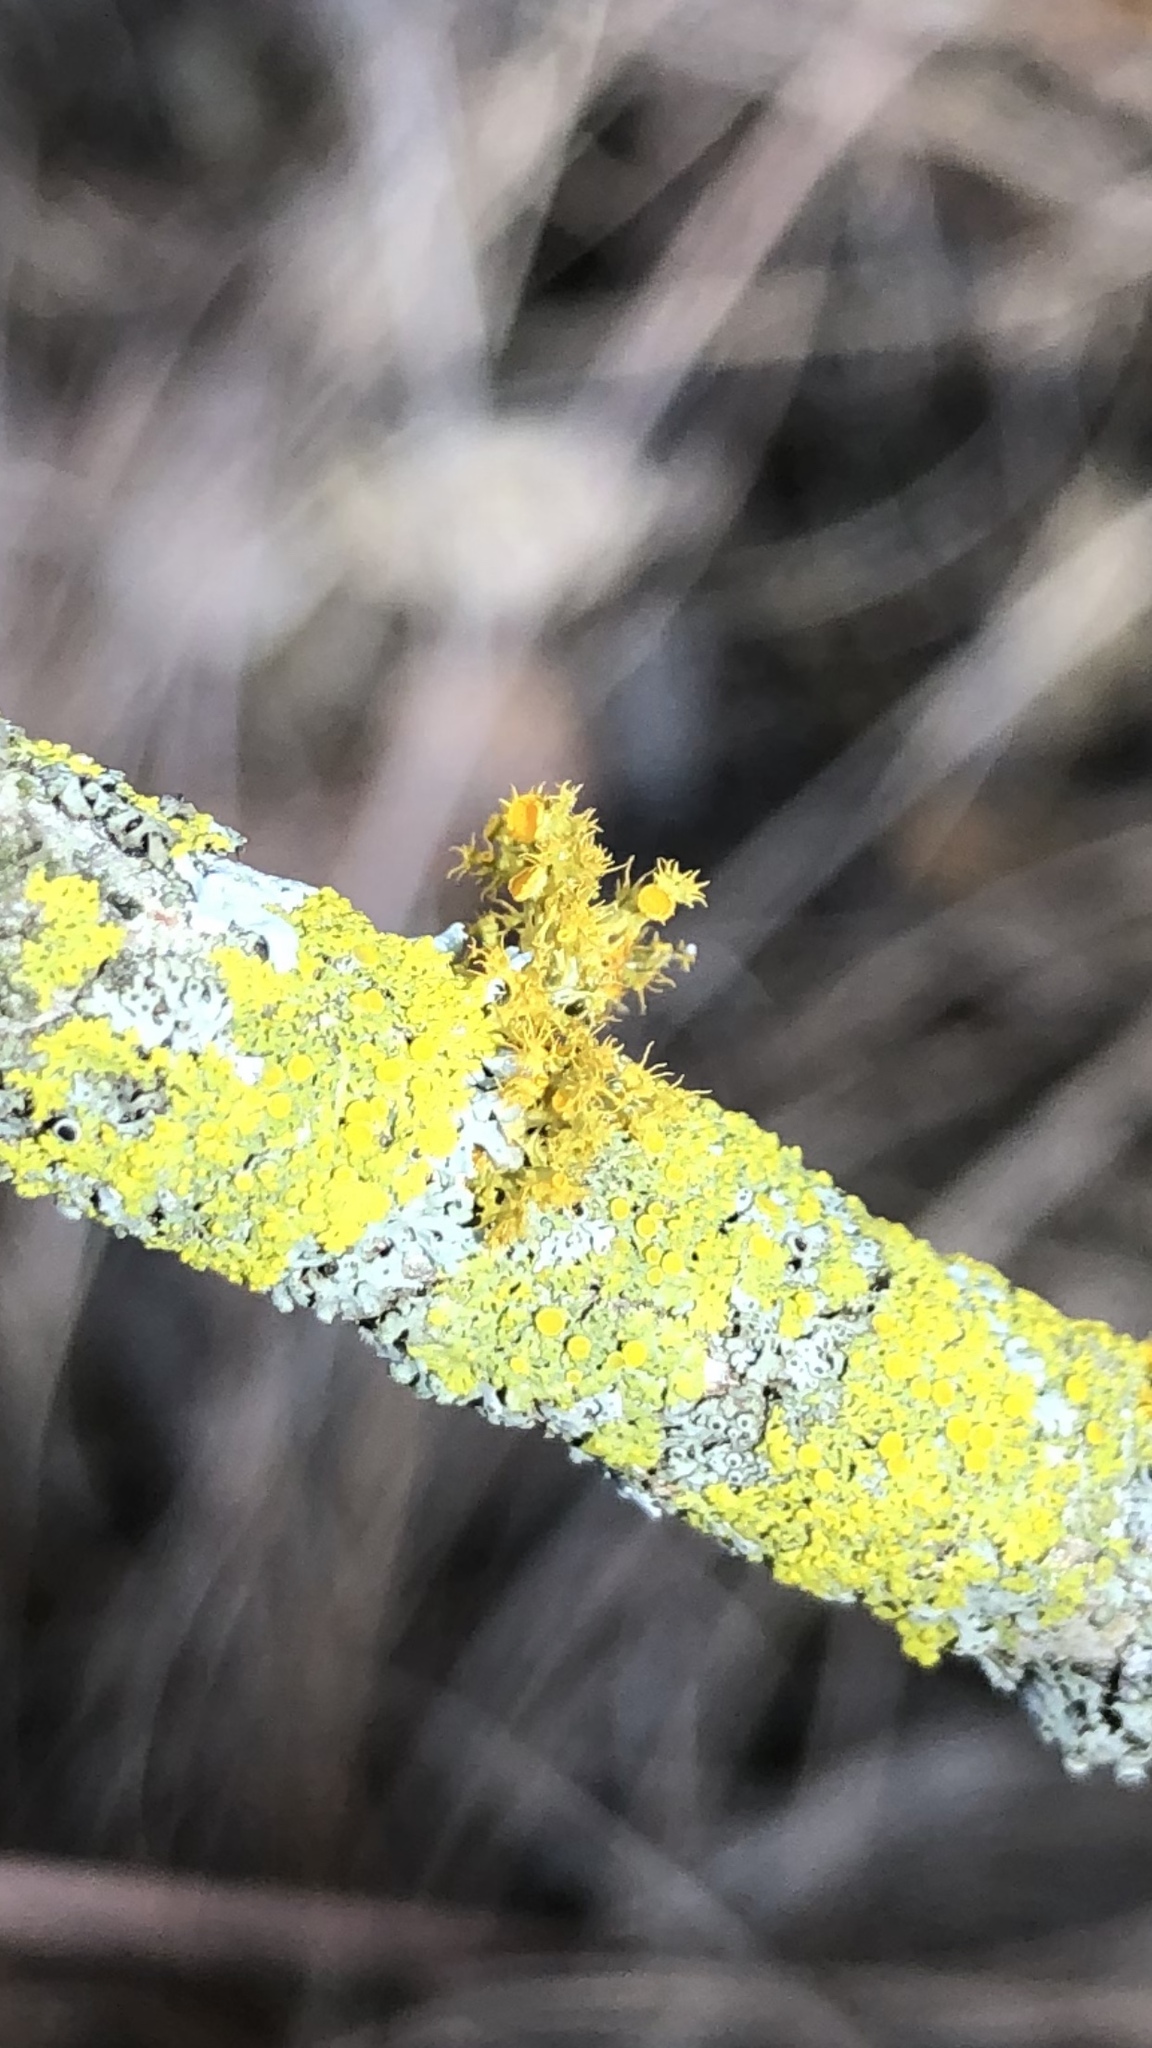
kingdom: Fungi
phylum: Ascomycota
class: Lecanoromycetes
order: Teloschistales
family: Teloschistaceae
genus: Niorma
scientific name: Niorma chrysophthalma
